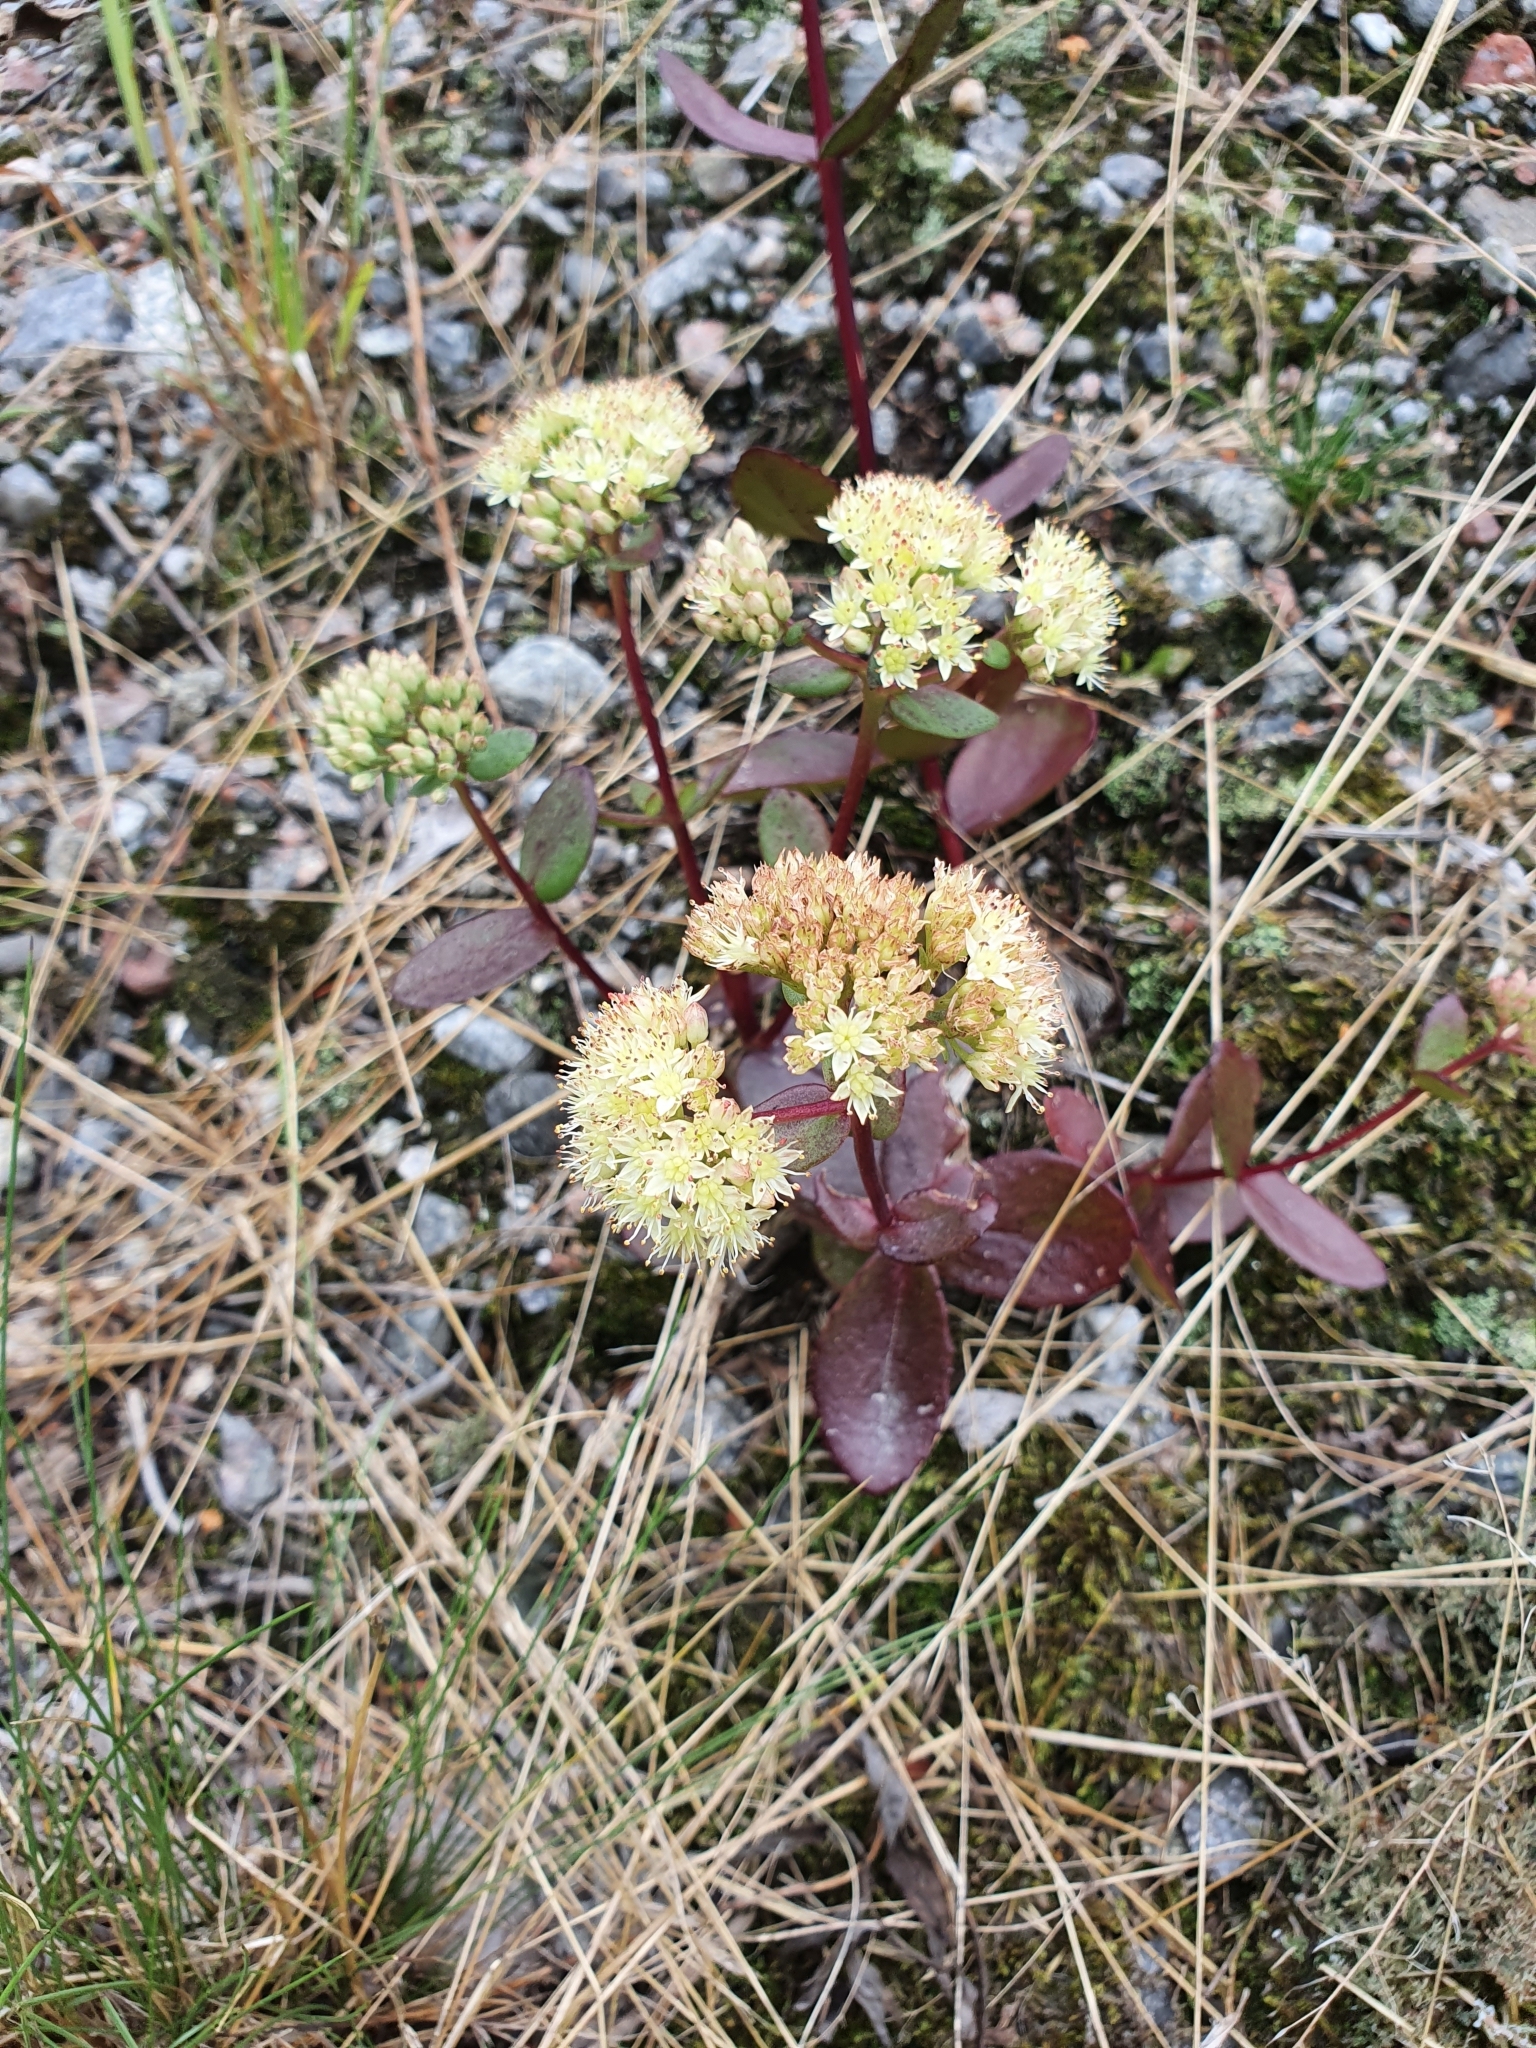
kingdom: Plantae
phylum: Tracheophyta
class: Magnoliopsida
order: Saxifragales
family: Crassulaceae
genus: Hylotelephium
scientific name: Hylotelephium maximum
